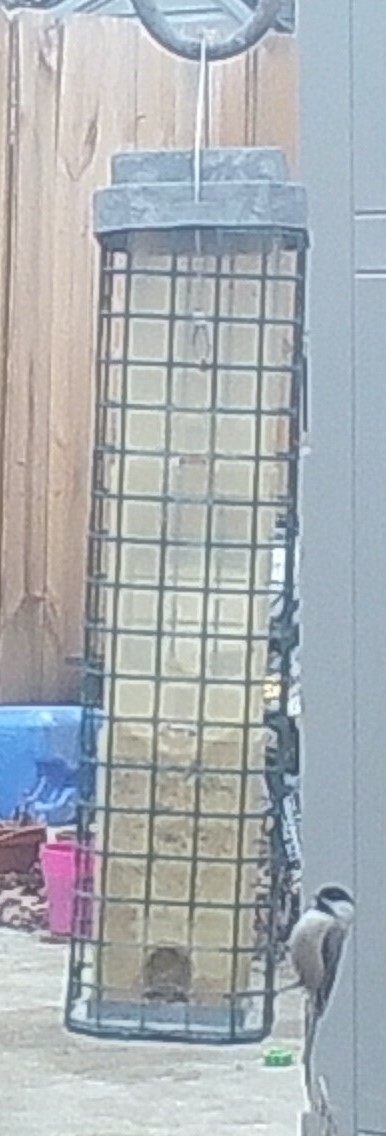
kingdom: Animalia
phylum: Chordata
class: Aves
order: Passeriformes
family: Paridae
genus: Poecile
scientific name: Poecile carolinensis
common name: Carolina chickadee
